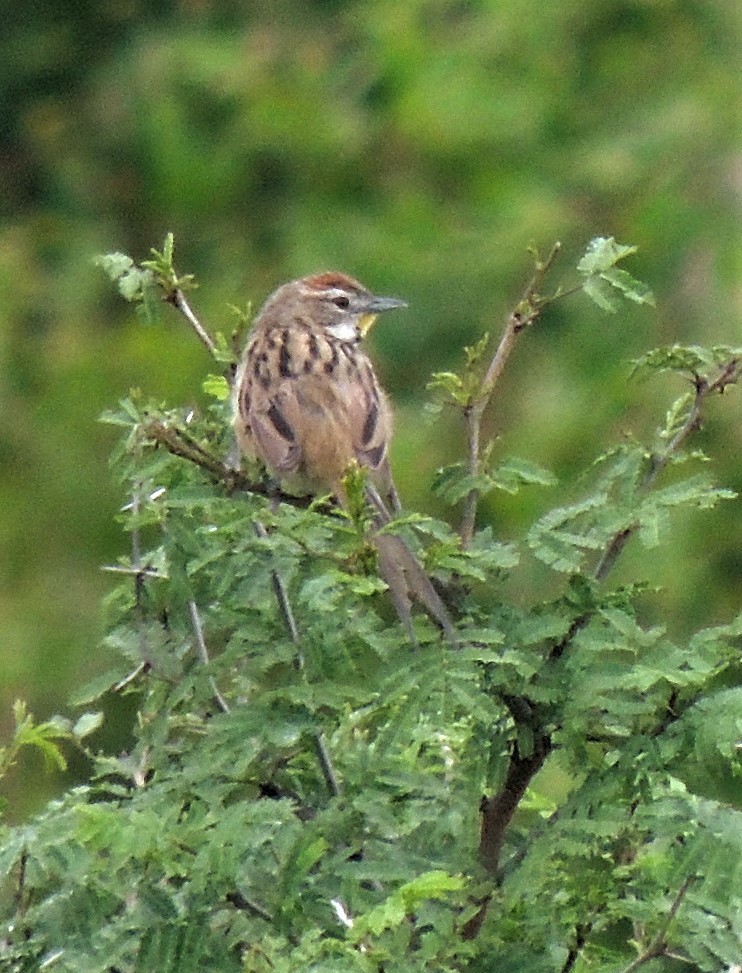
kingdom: Animalia
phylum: Chordata
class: Aves
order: Passeriformes
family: Furnariidae
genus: Schoeniophylax
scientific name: Schoeniophylax phryganophilus
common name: Chotoy spinetail
